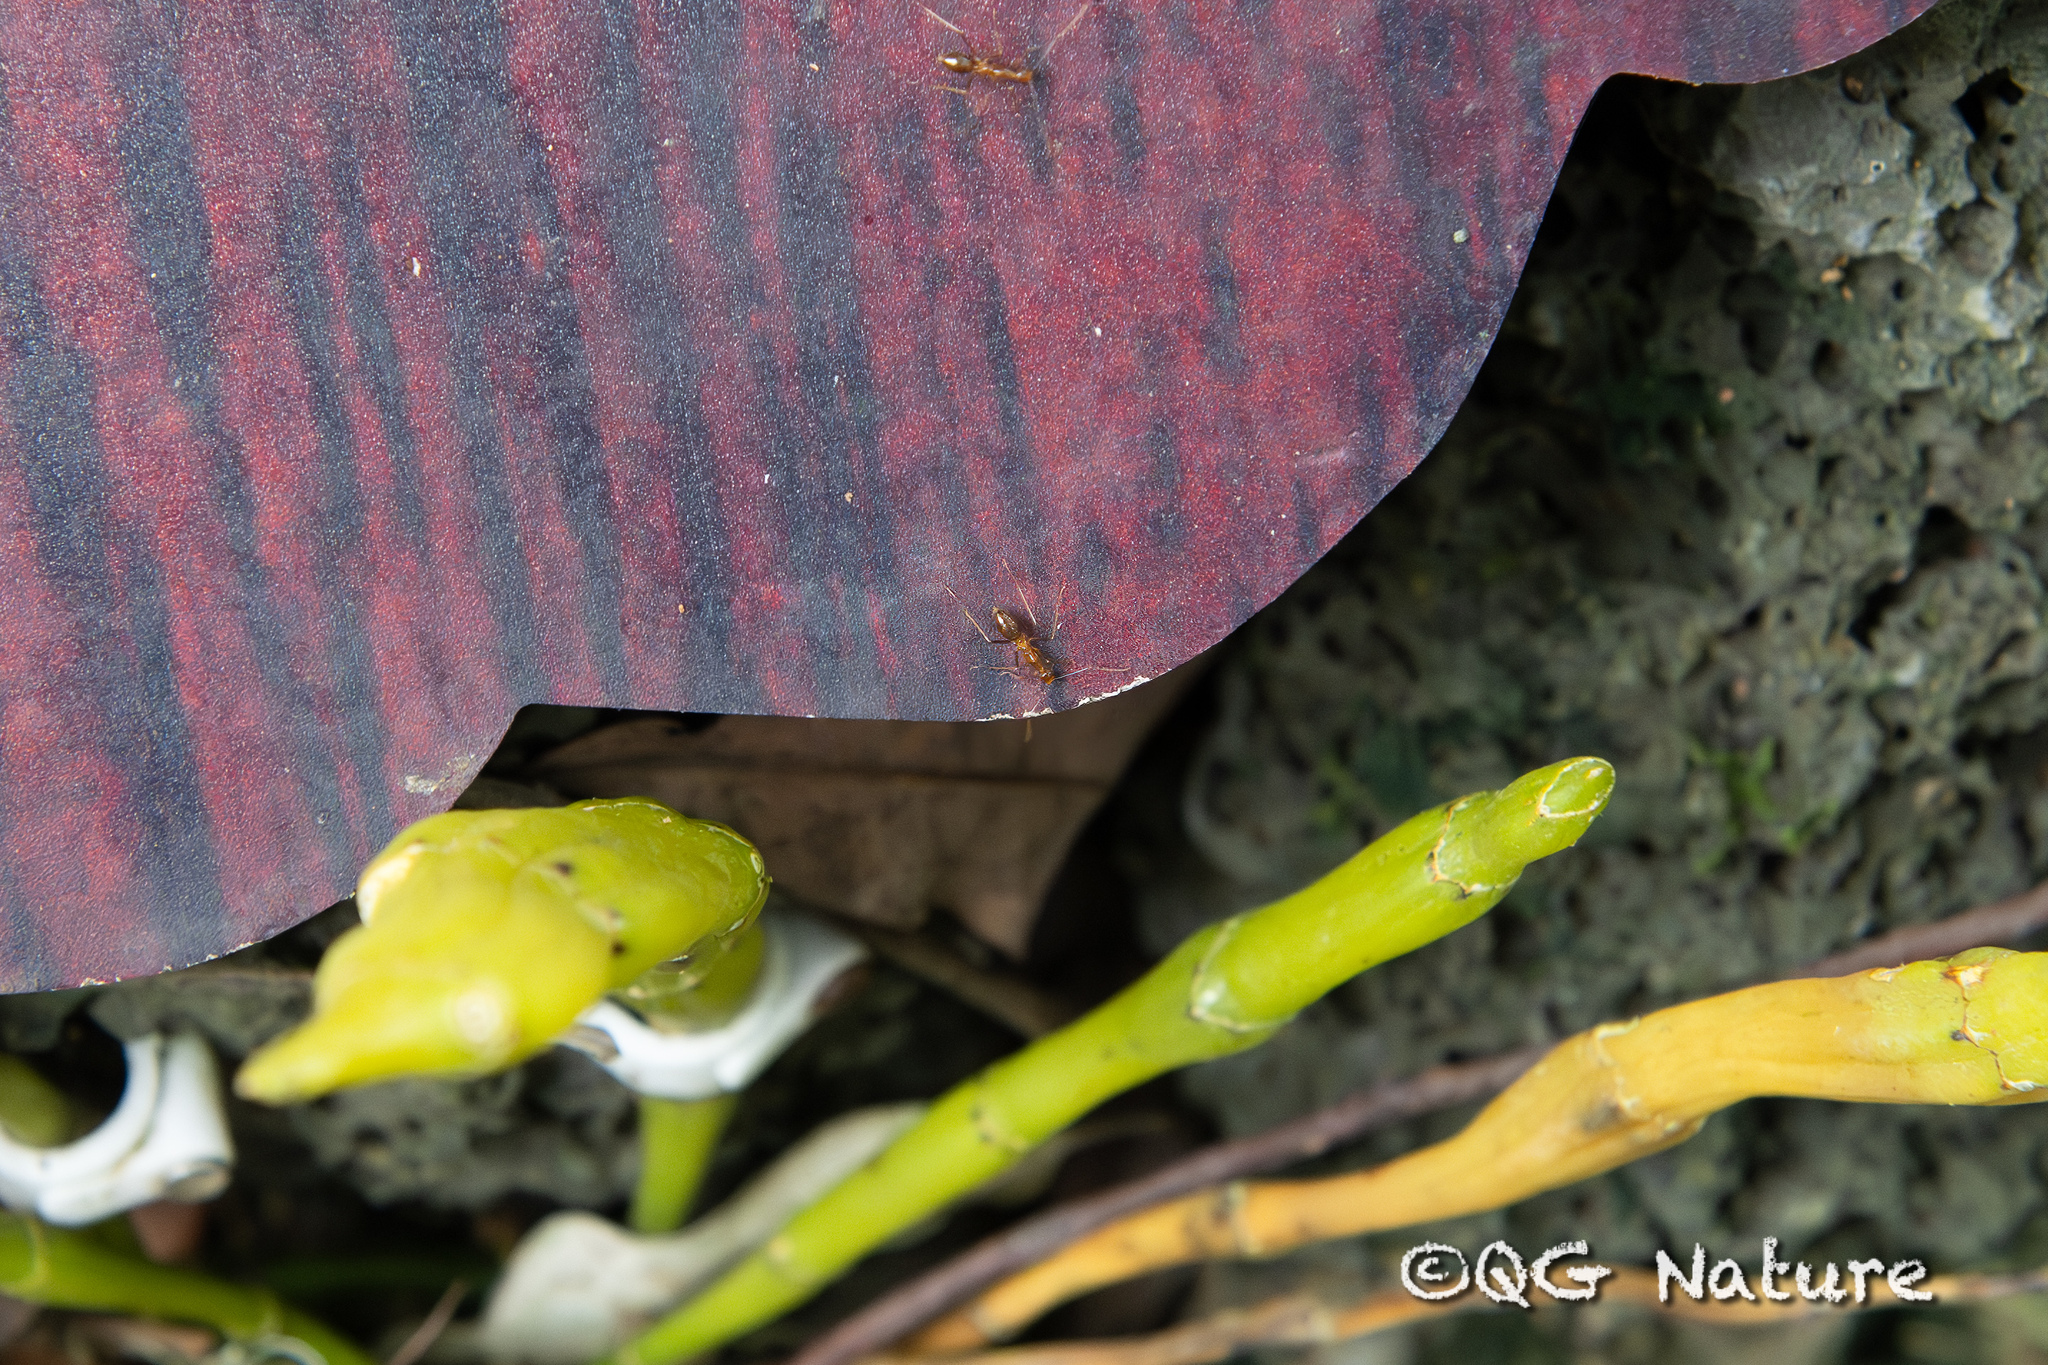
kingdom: Animalia
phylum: Arthropoda
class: Insecta
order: Hymenoptera
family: Formicidae
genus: Anoplolepis
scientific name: Anoplolepis gracilipes
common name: Ant
